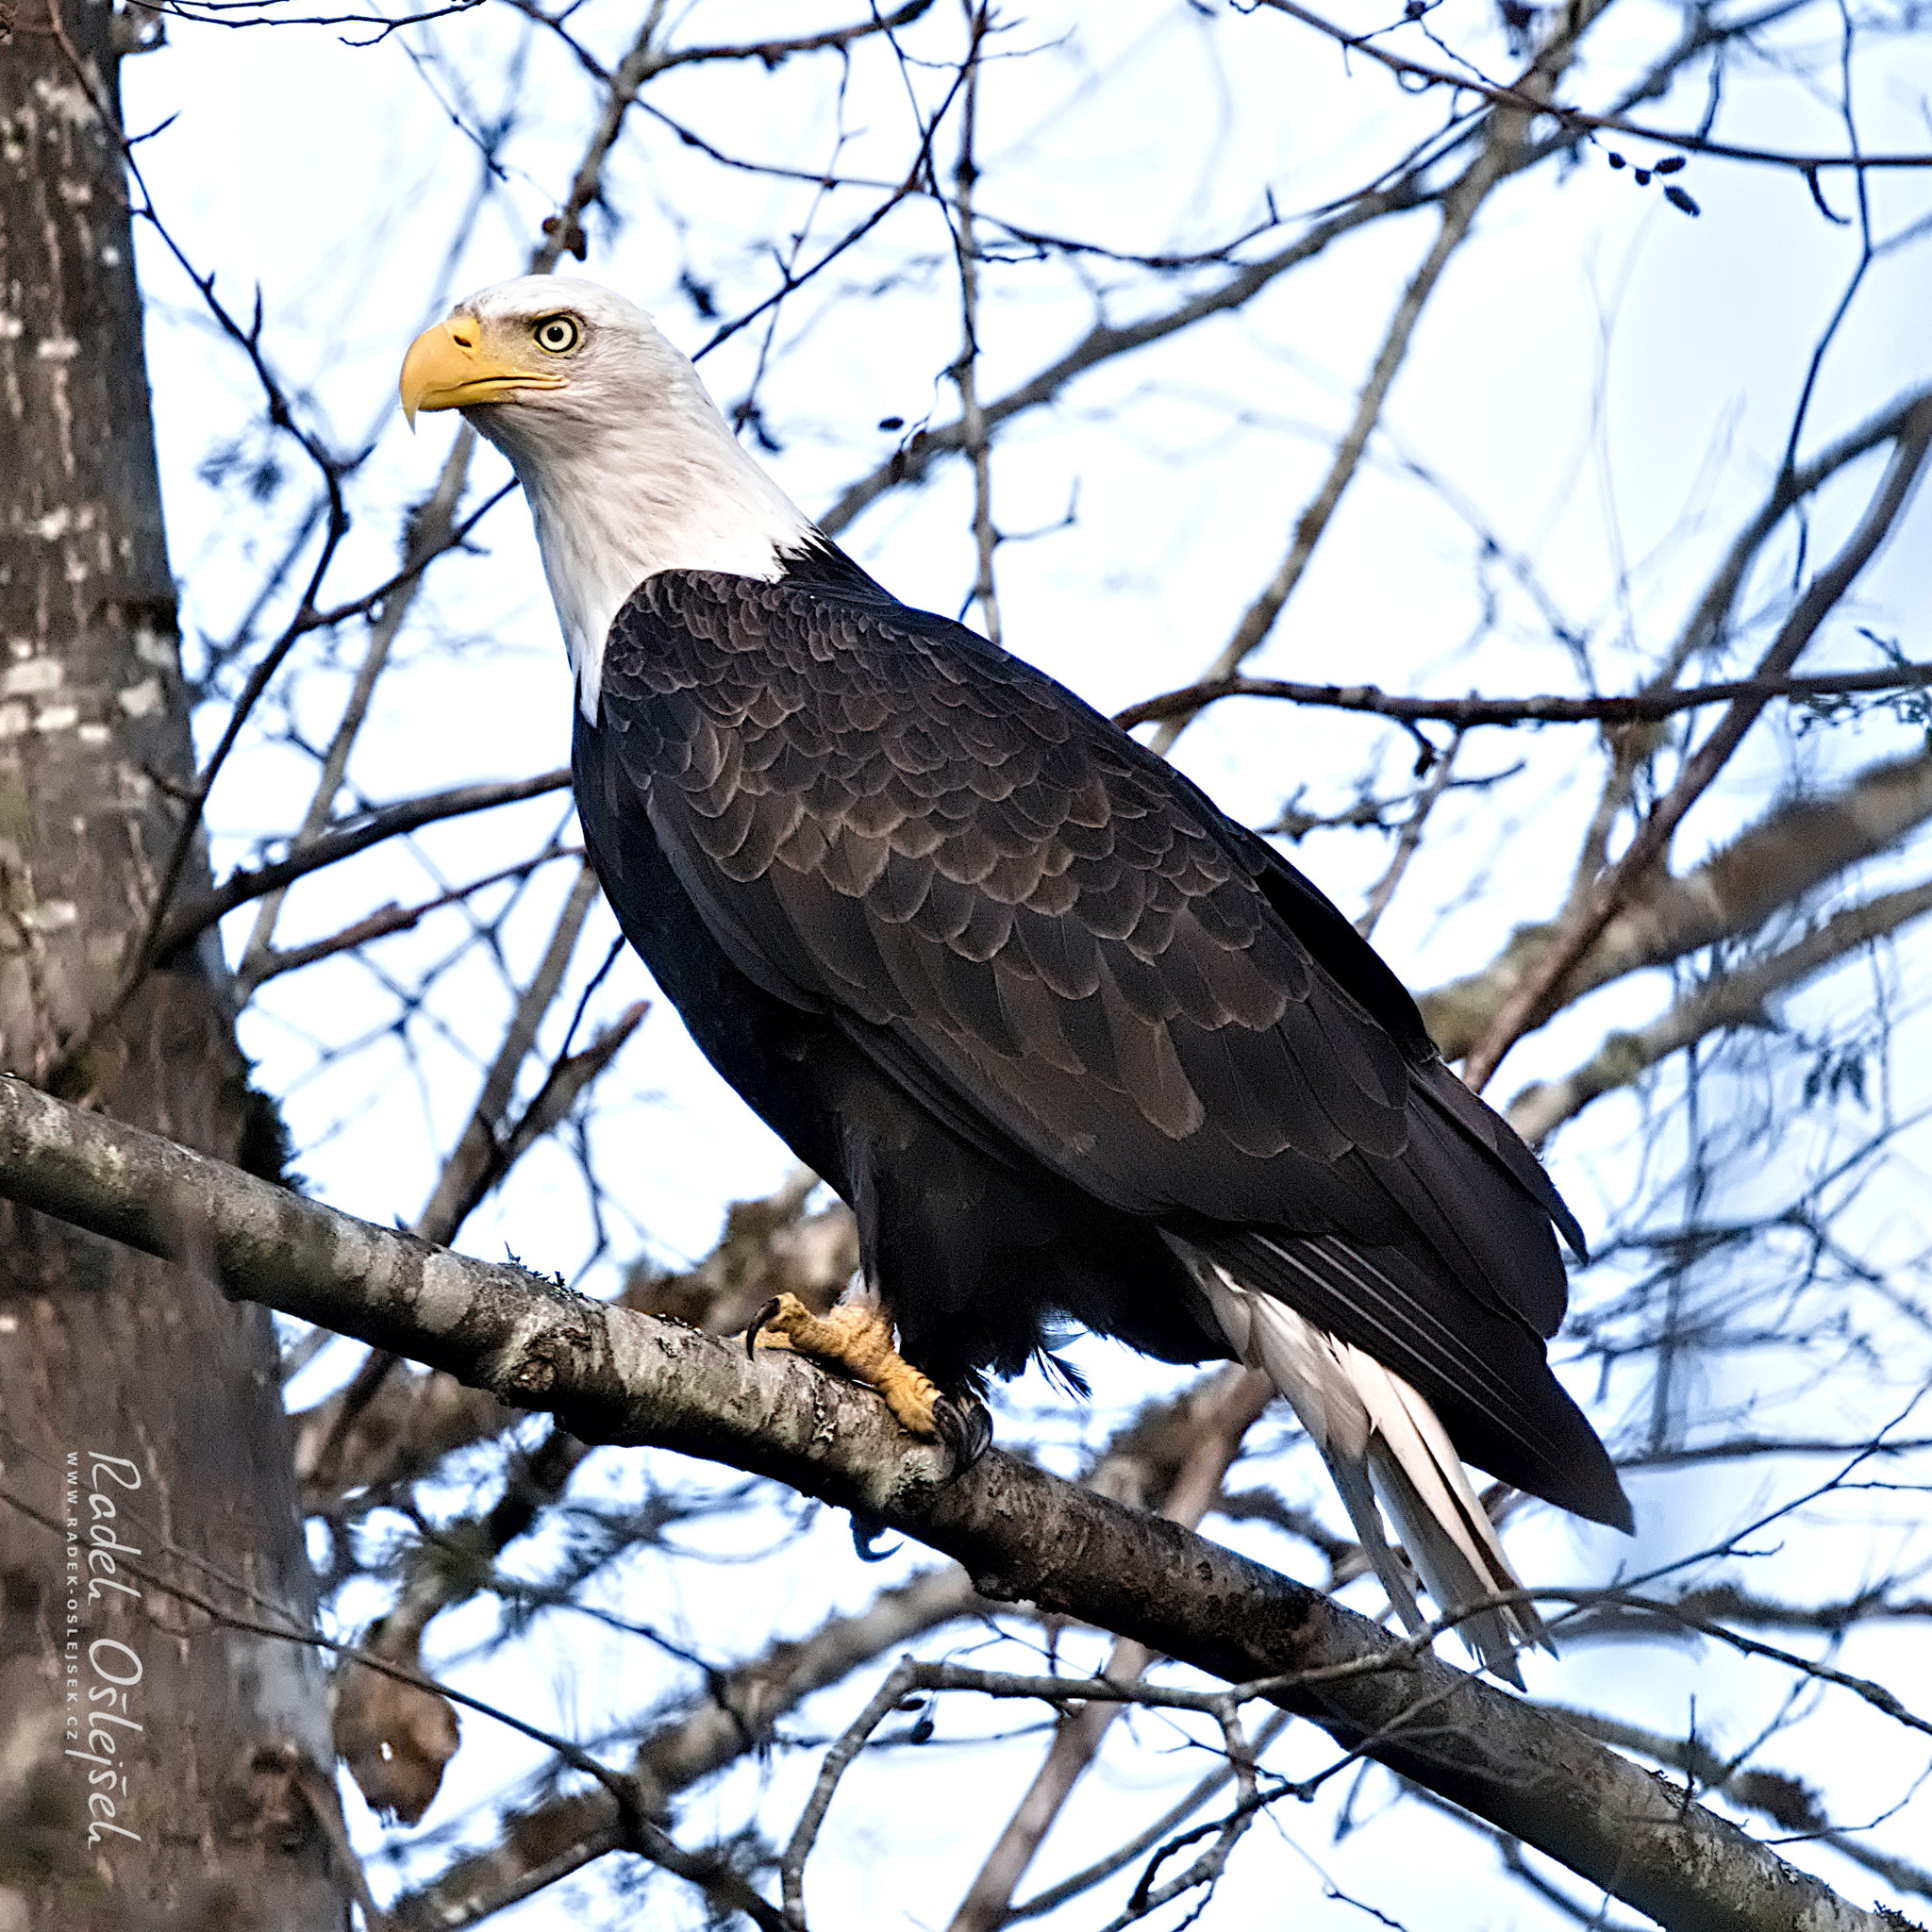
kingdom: Animalia
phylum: Chordata
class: Aves
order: Accipitriformes
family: Accipitridae
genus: Haliaeetus
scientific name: Haliaeetus leucocephalus
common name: Bald eagle
